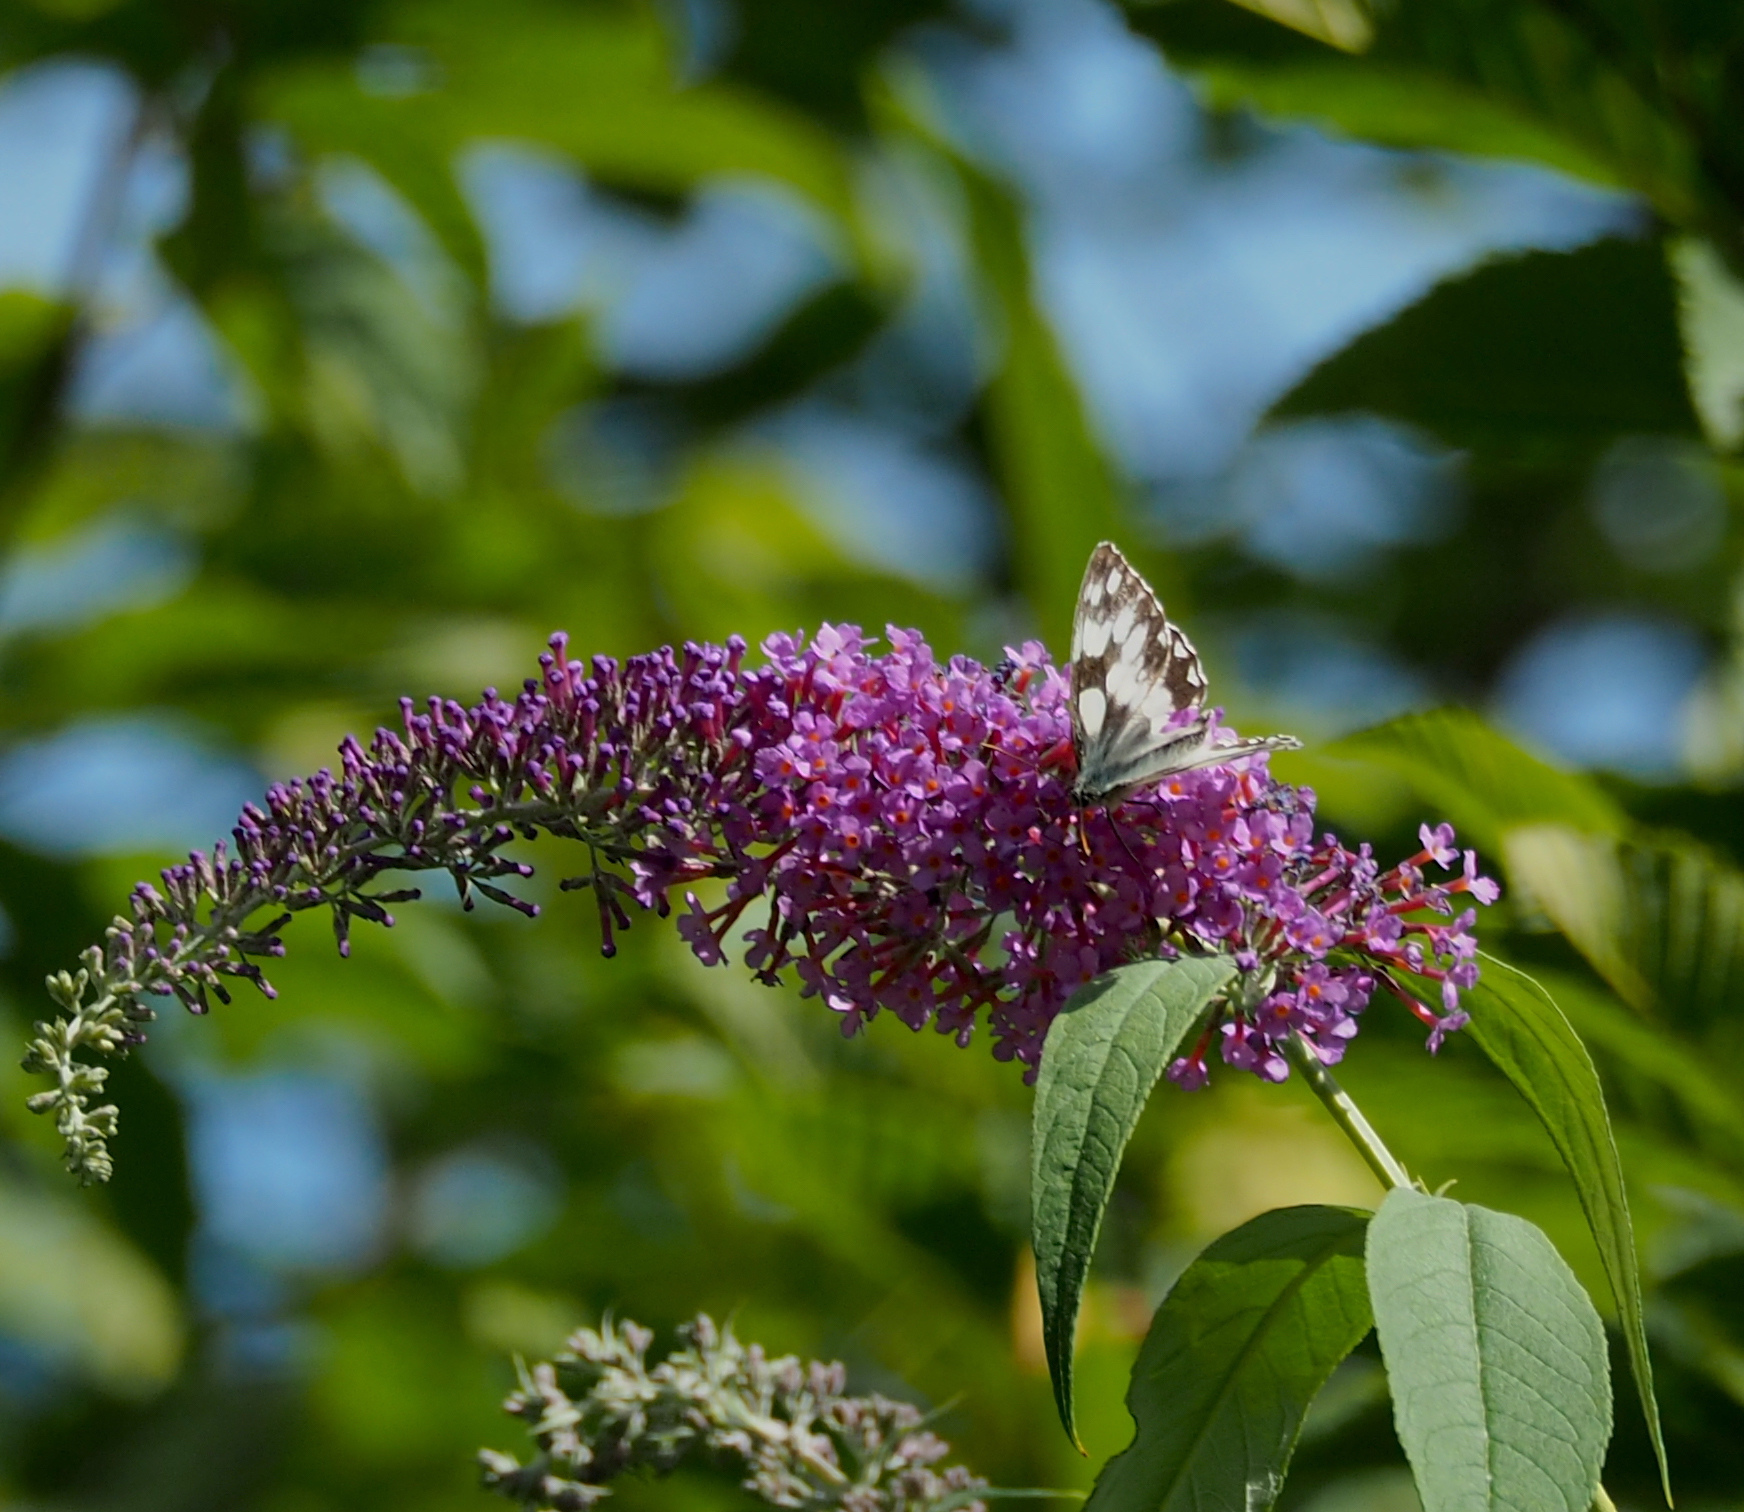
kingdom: Animalia
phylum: Arthropoda
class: Insecta
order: Lepidoptera
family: Nymphalidae
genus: Melanargia
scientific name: Melanargia galathea
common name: Marbled white
